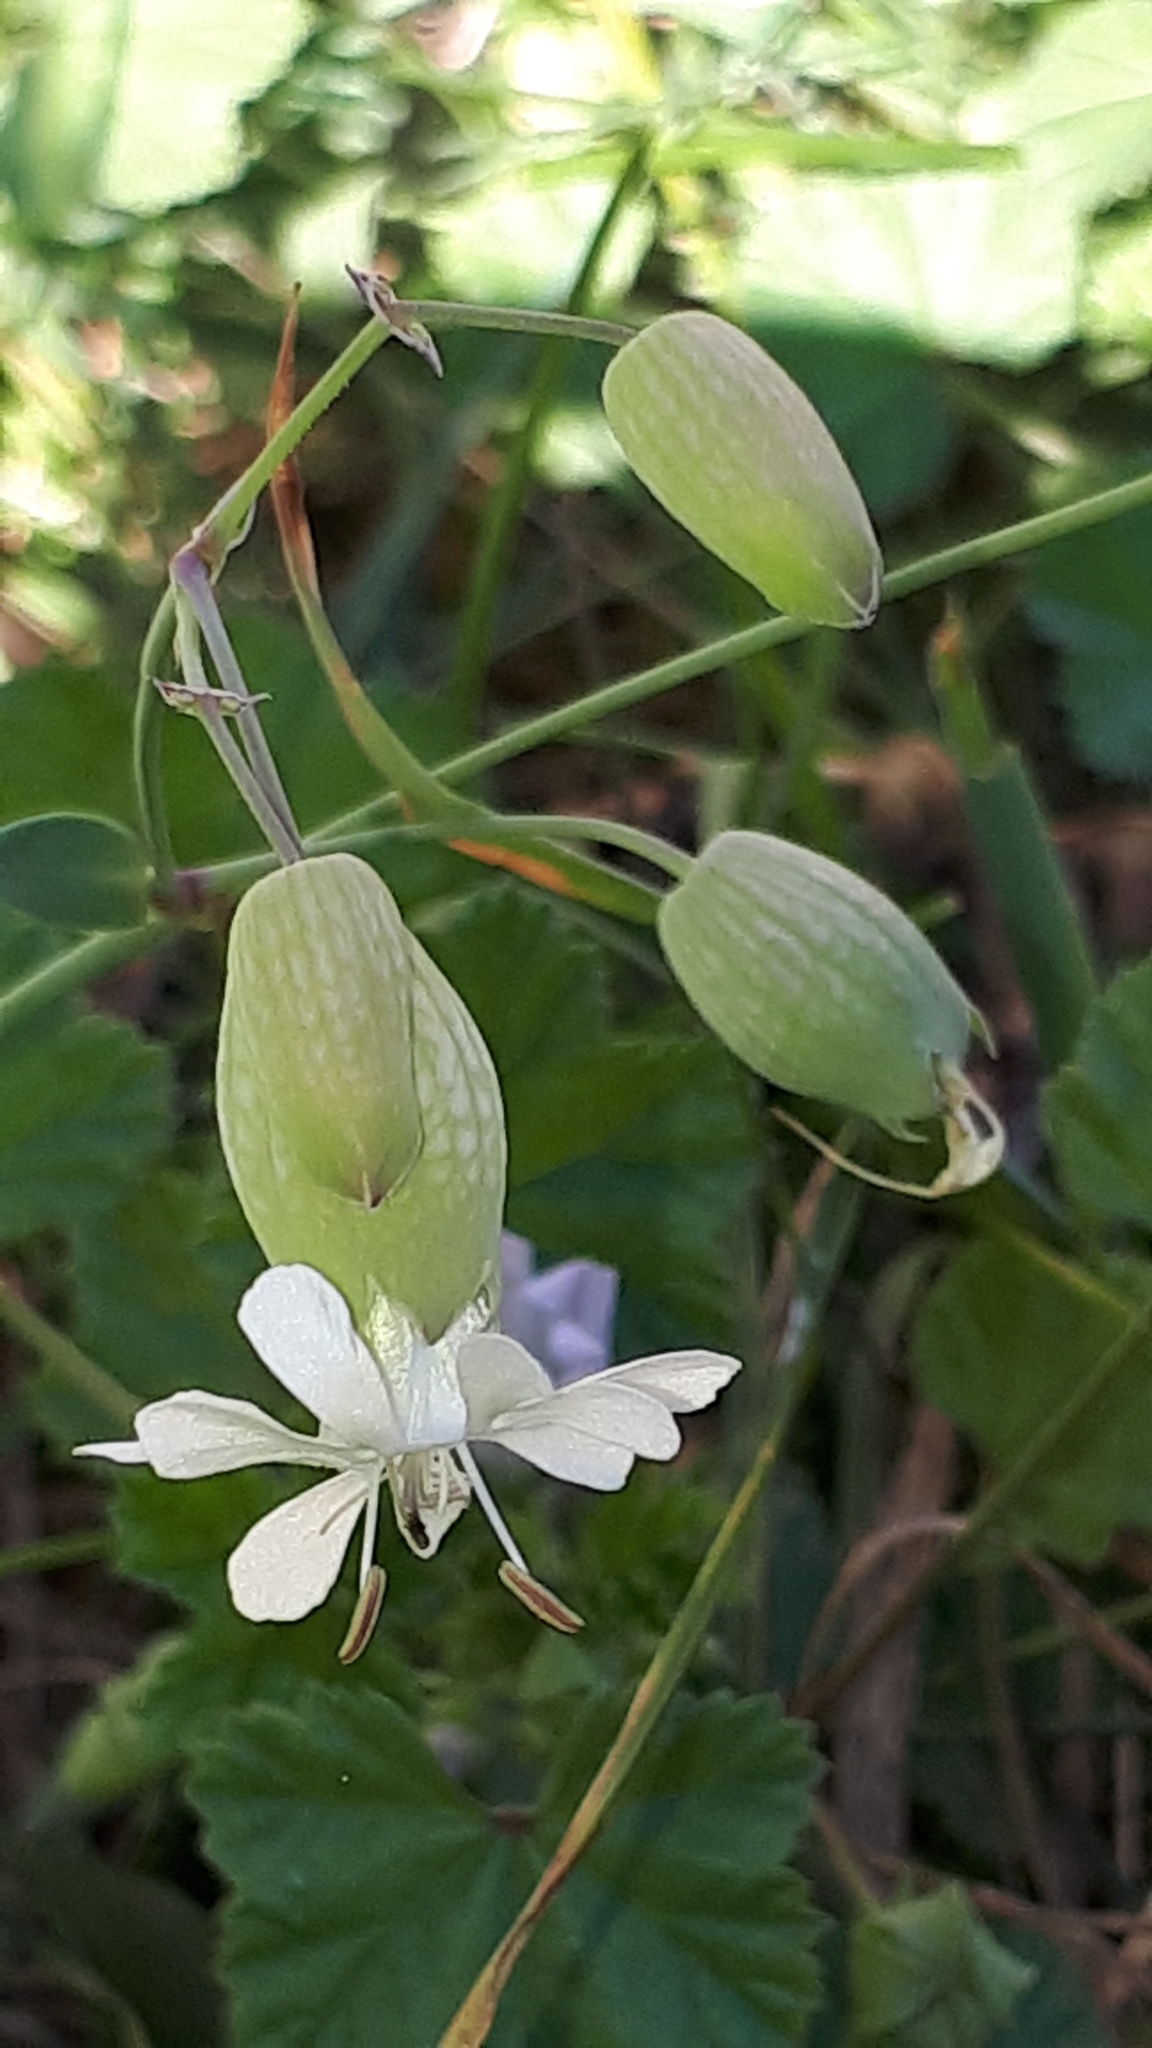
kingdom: Plantae
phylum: Tracheophyta
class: Magnoliopsida
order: Caryophyllales
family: Caryophyllaceae
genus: Silene
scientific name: Silene vulgaris
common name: Bladder campion
